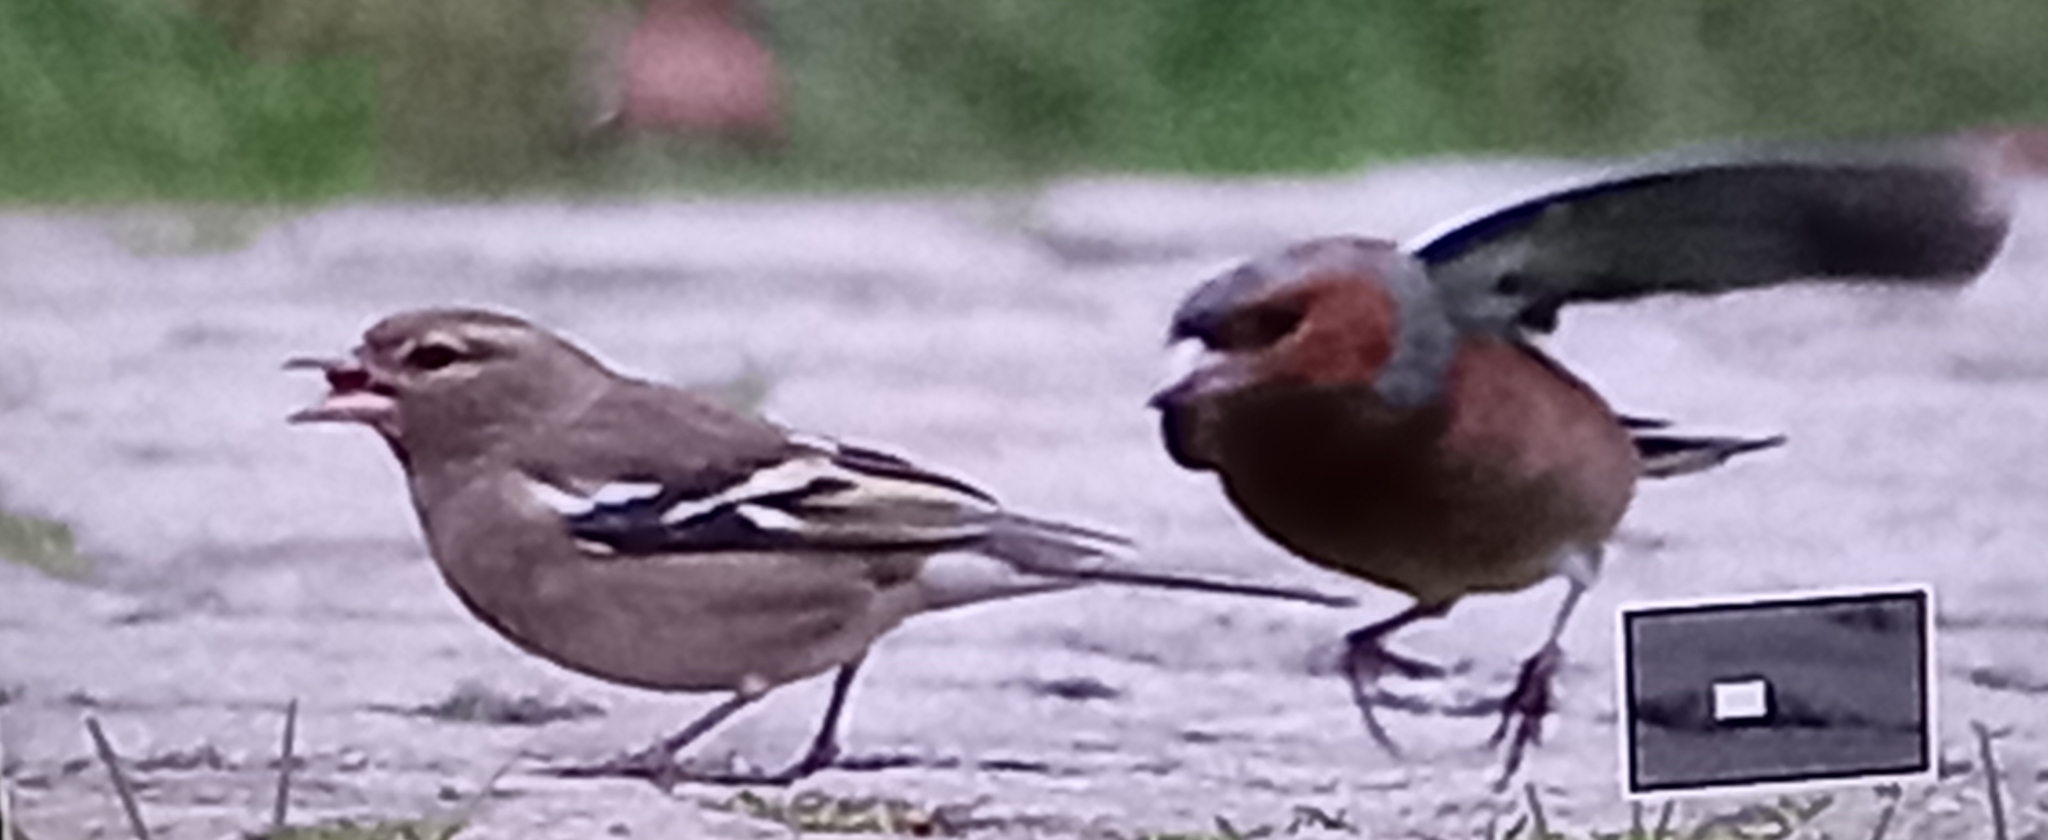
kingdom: Animalia
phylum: Chordata
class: Aves
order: Passeriformes
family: Fringillidae
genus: Fringilla
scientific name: Fringilla coelebs
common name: Common chaffinch
